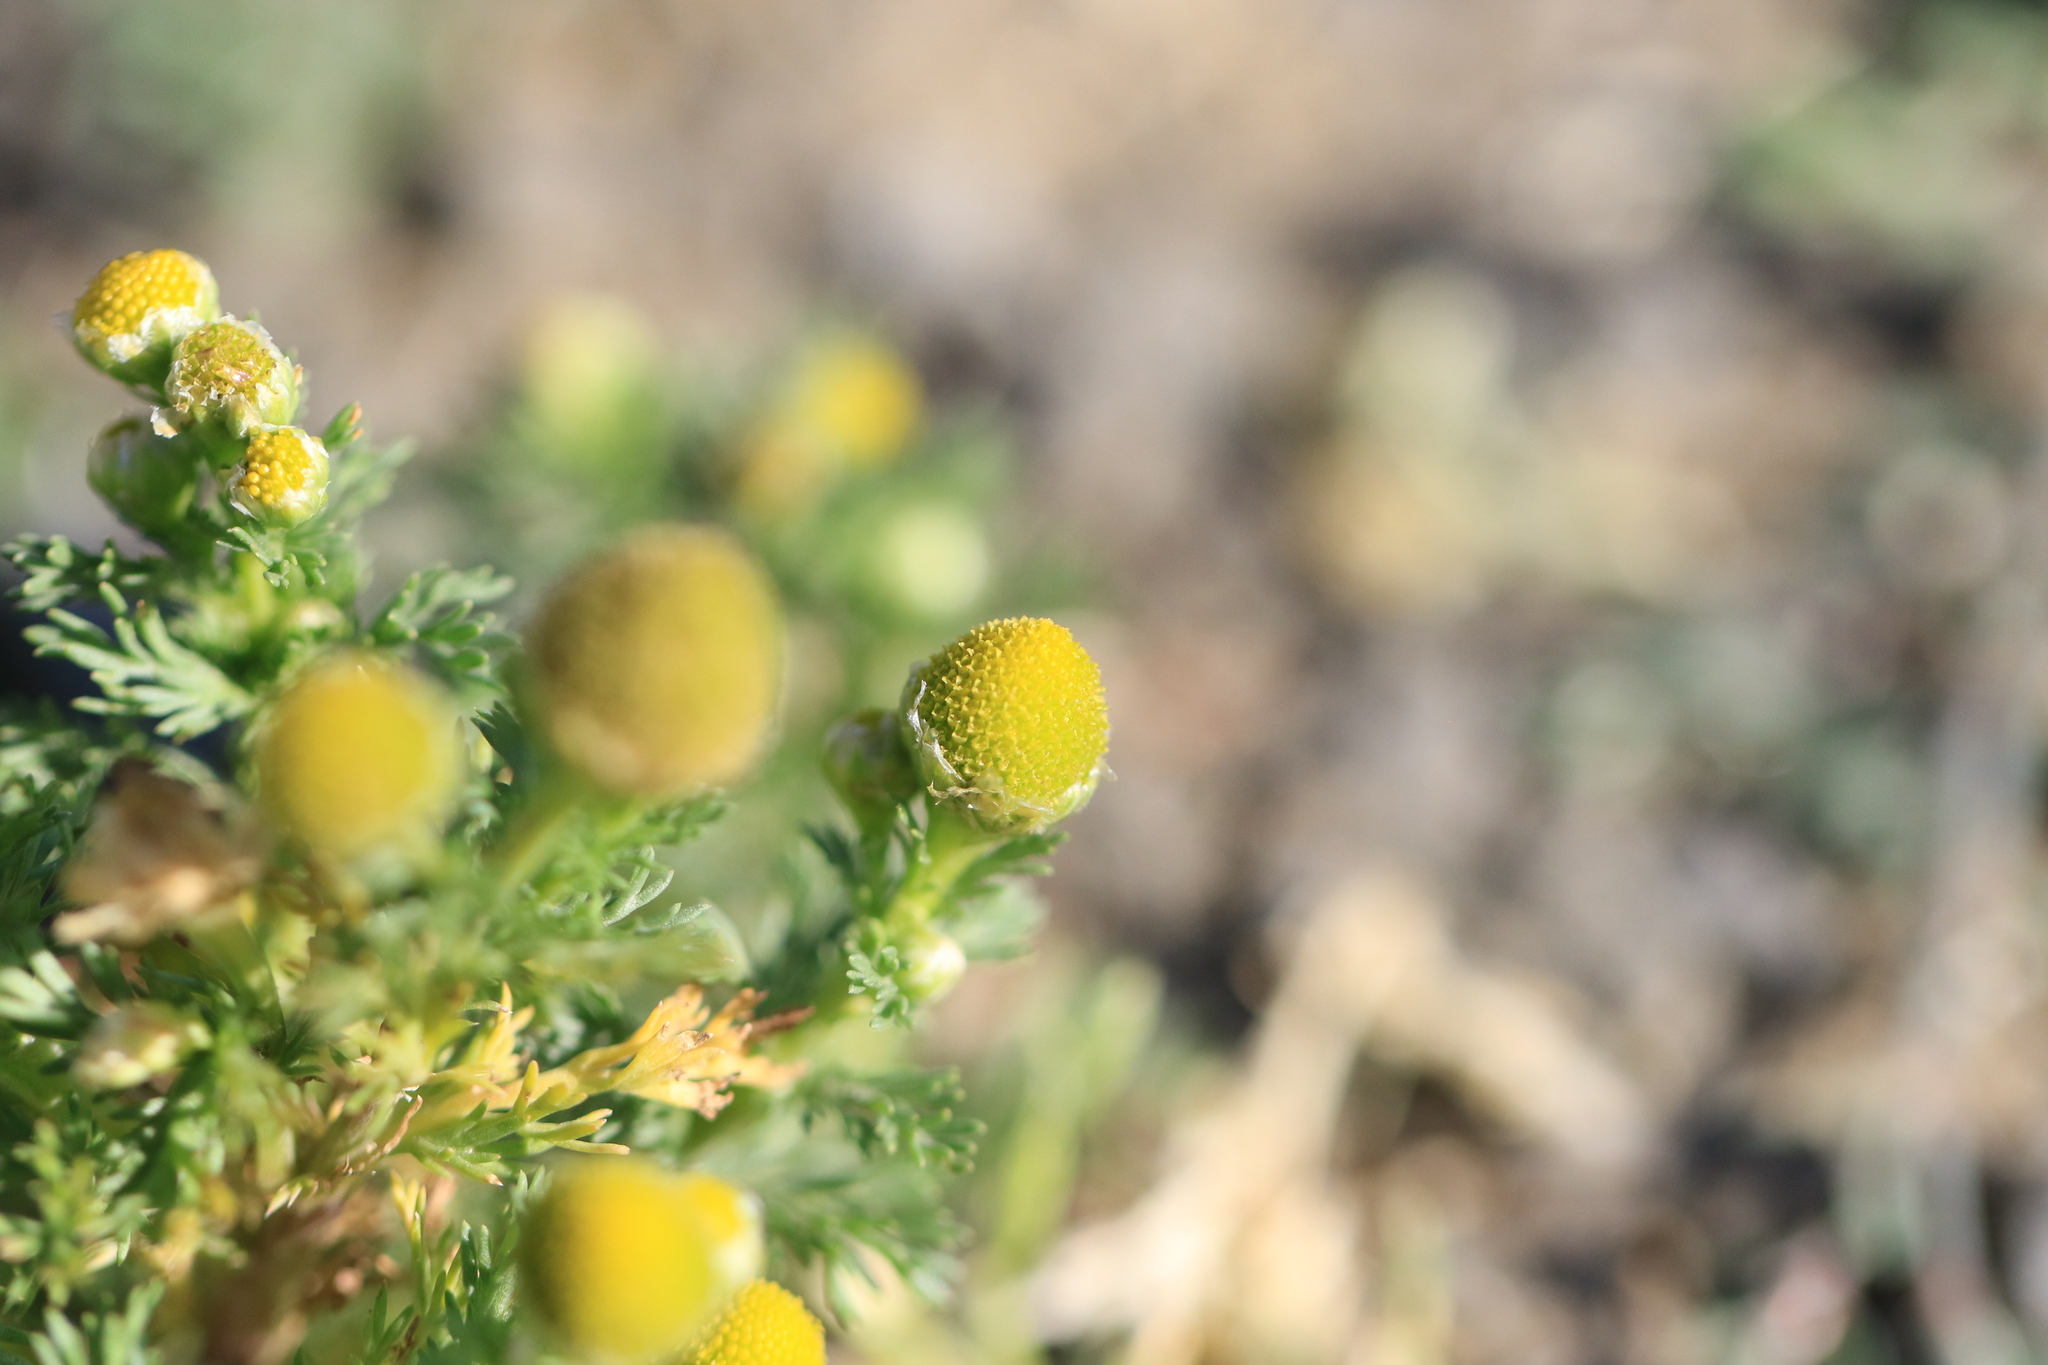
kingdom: Plantae
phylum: Tracheophyta
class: Magnoliopsida
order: Asterales
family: Asteraceae
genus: Matricaria
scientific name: Matricaria discoidea
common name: Disc mayweed
